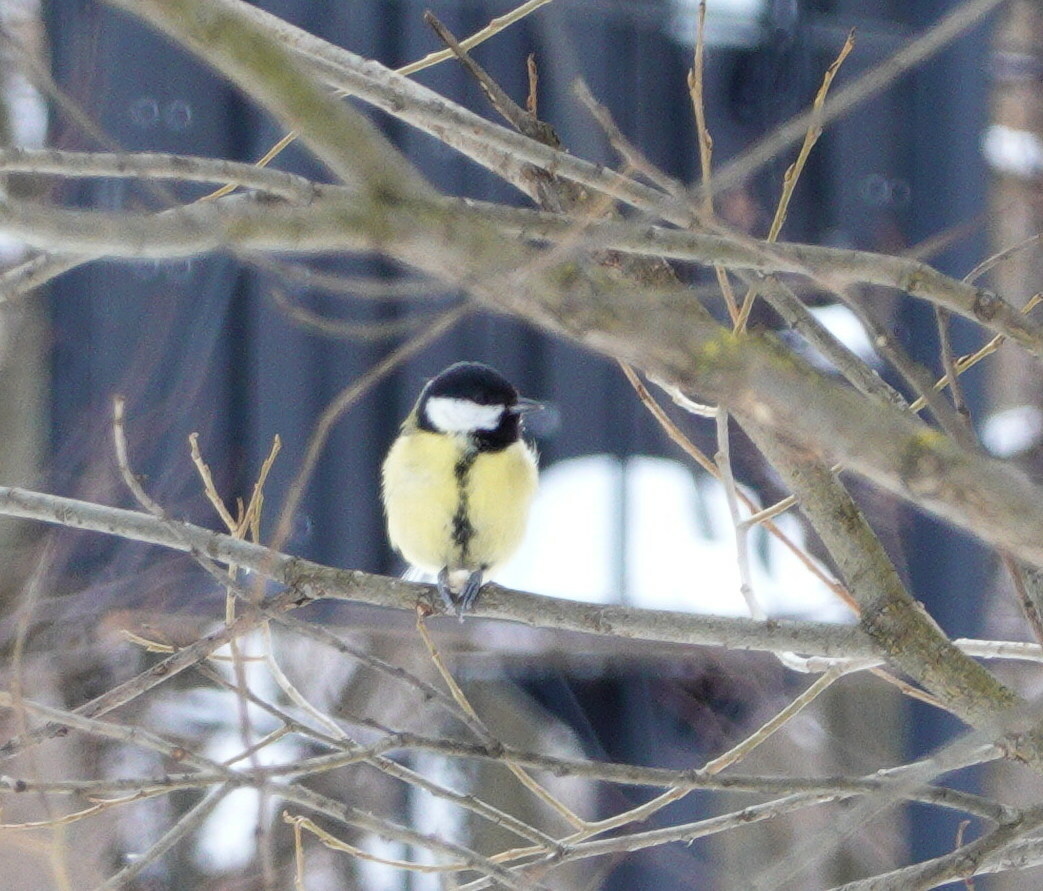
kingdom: Animalia
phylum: Chordata
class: Aves
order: Passeriformes
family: Paridae
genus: Parus
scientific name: Parus major
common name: Great tit
